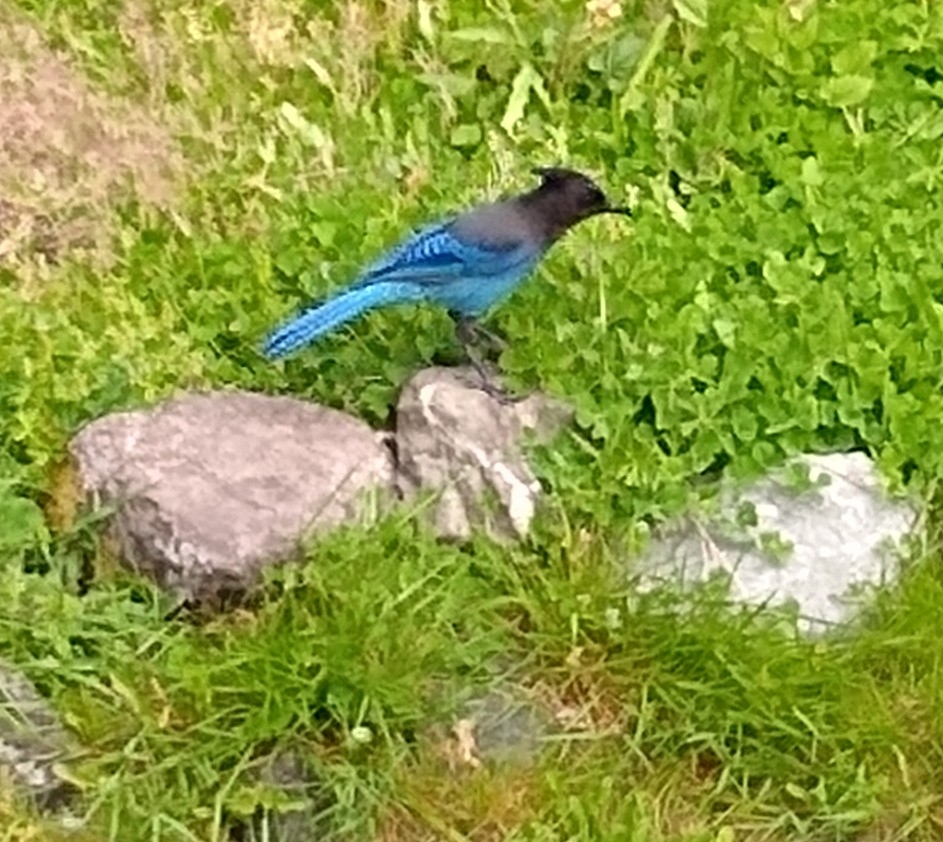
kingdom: Animalia
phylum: Chordata
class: Aves
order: Passeriformes
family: Corvidae
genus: Cyanocitta
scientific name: Cyanocitta stelleri
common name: Steller's jay
